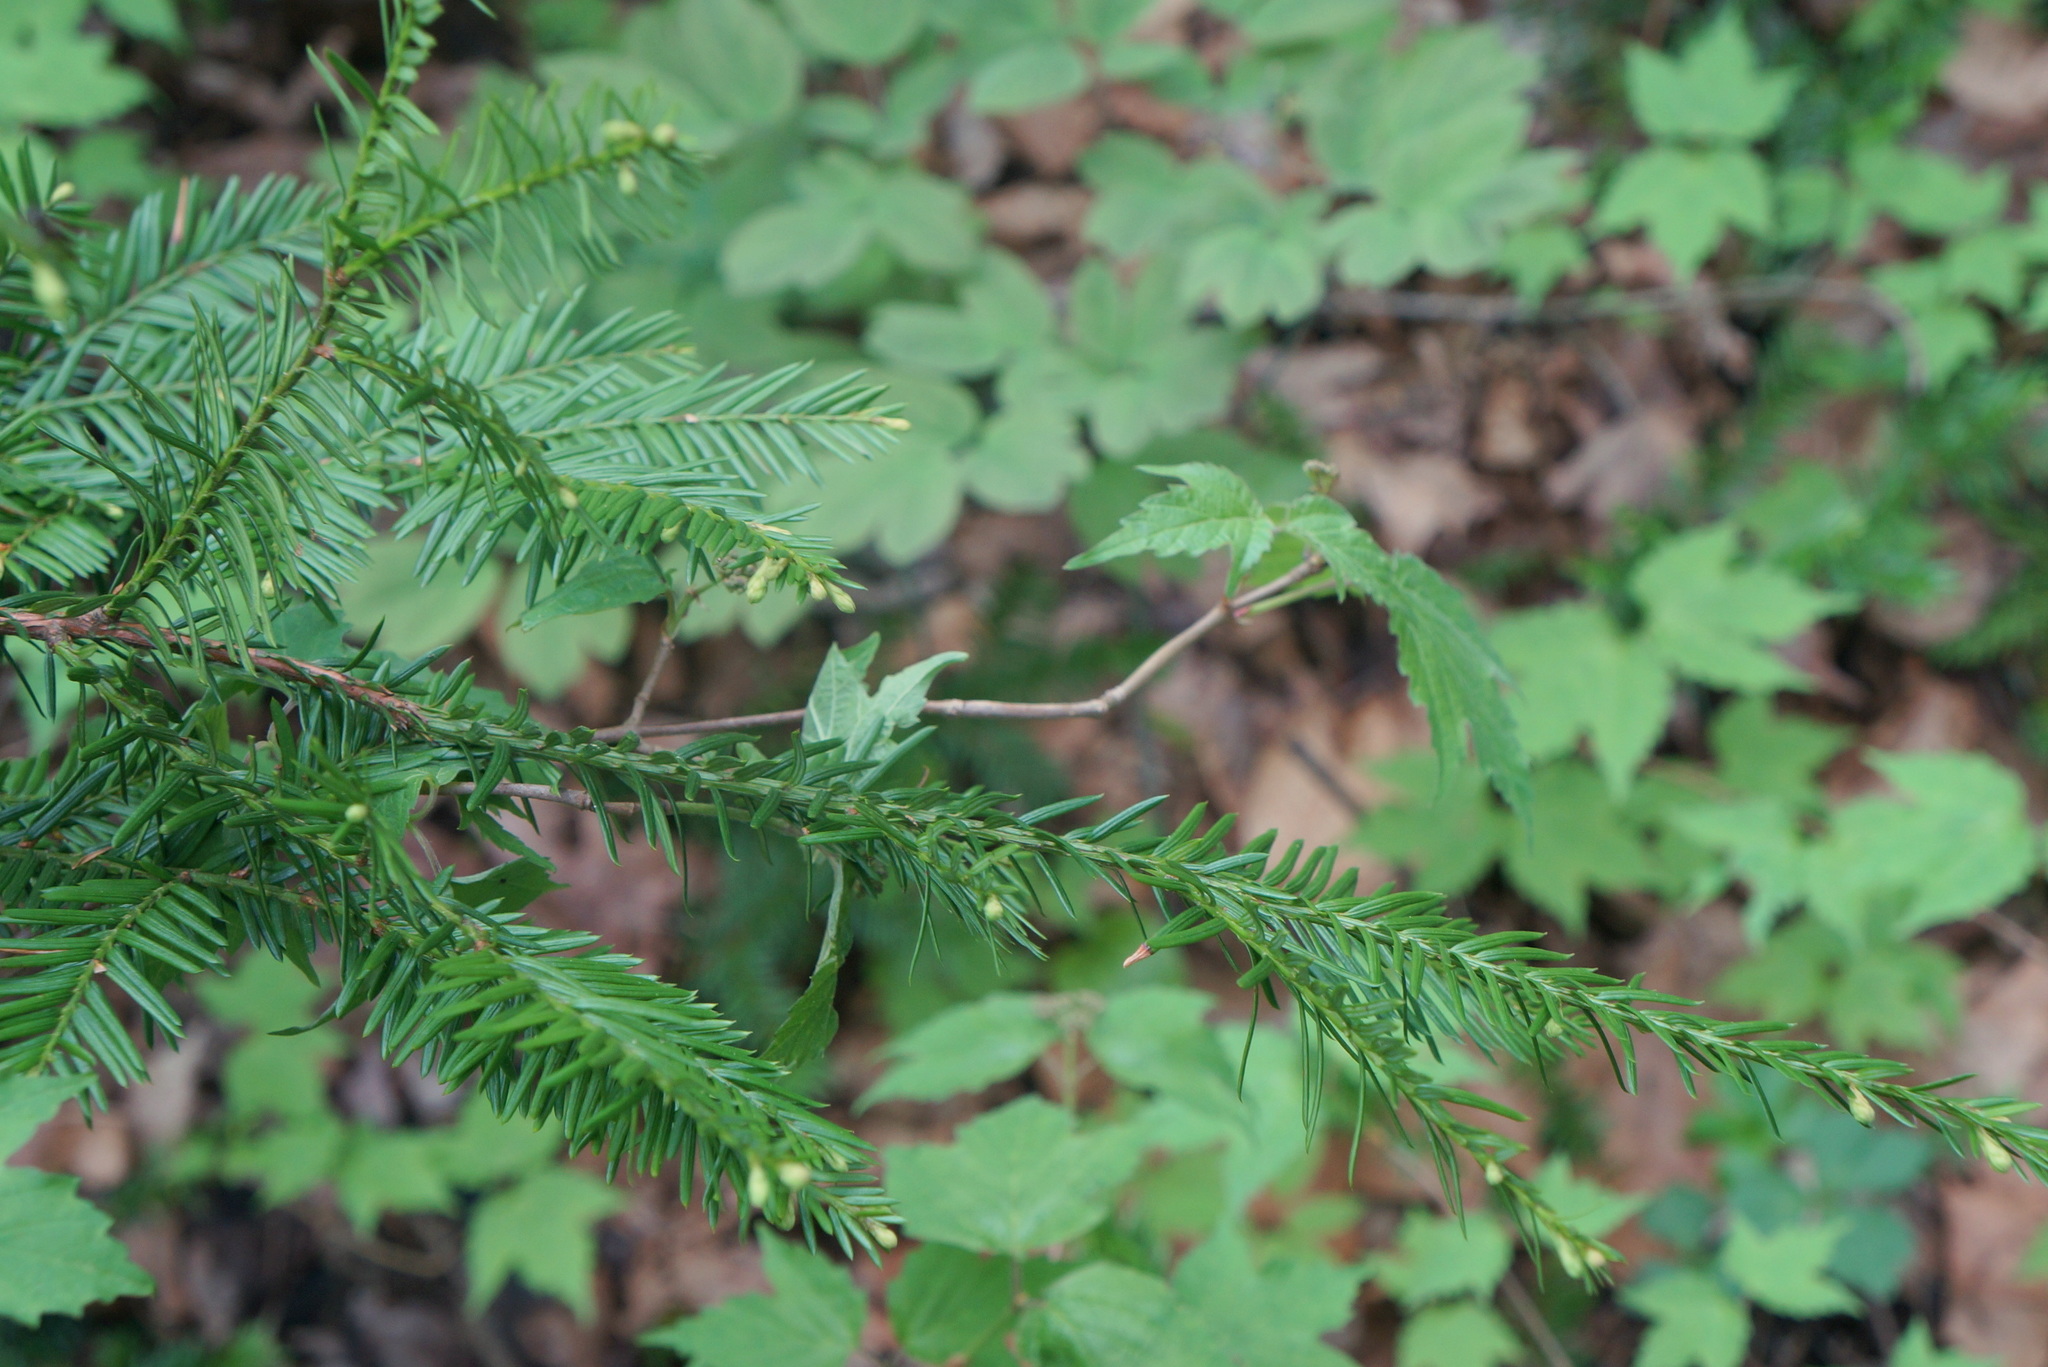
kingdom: Plantae
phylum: Tracheophyta
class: Pinopsida
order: Pinales
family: Taxaceae
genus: Taxus
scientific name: Taxus canadensis
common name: American yew
